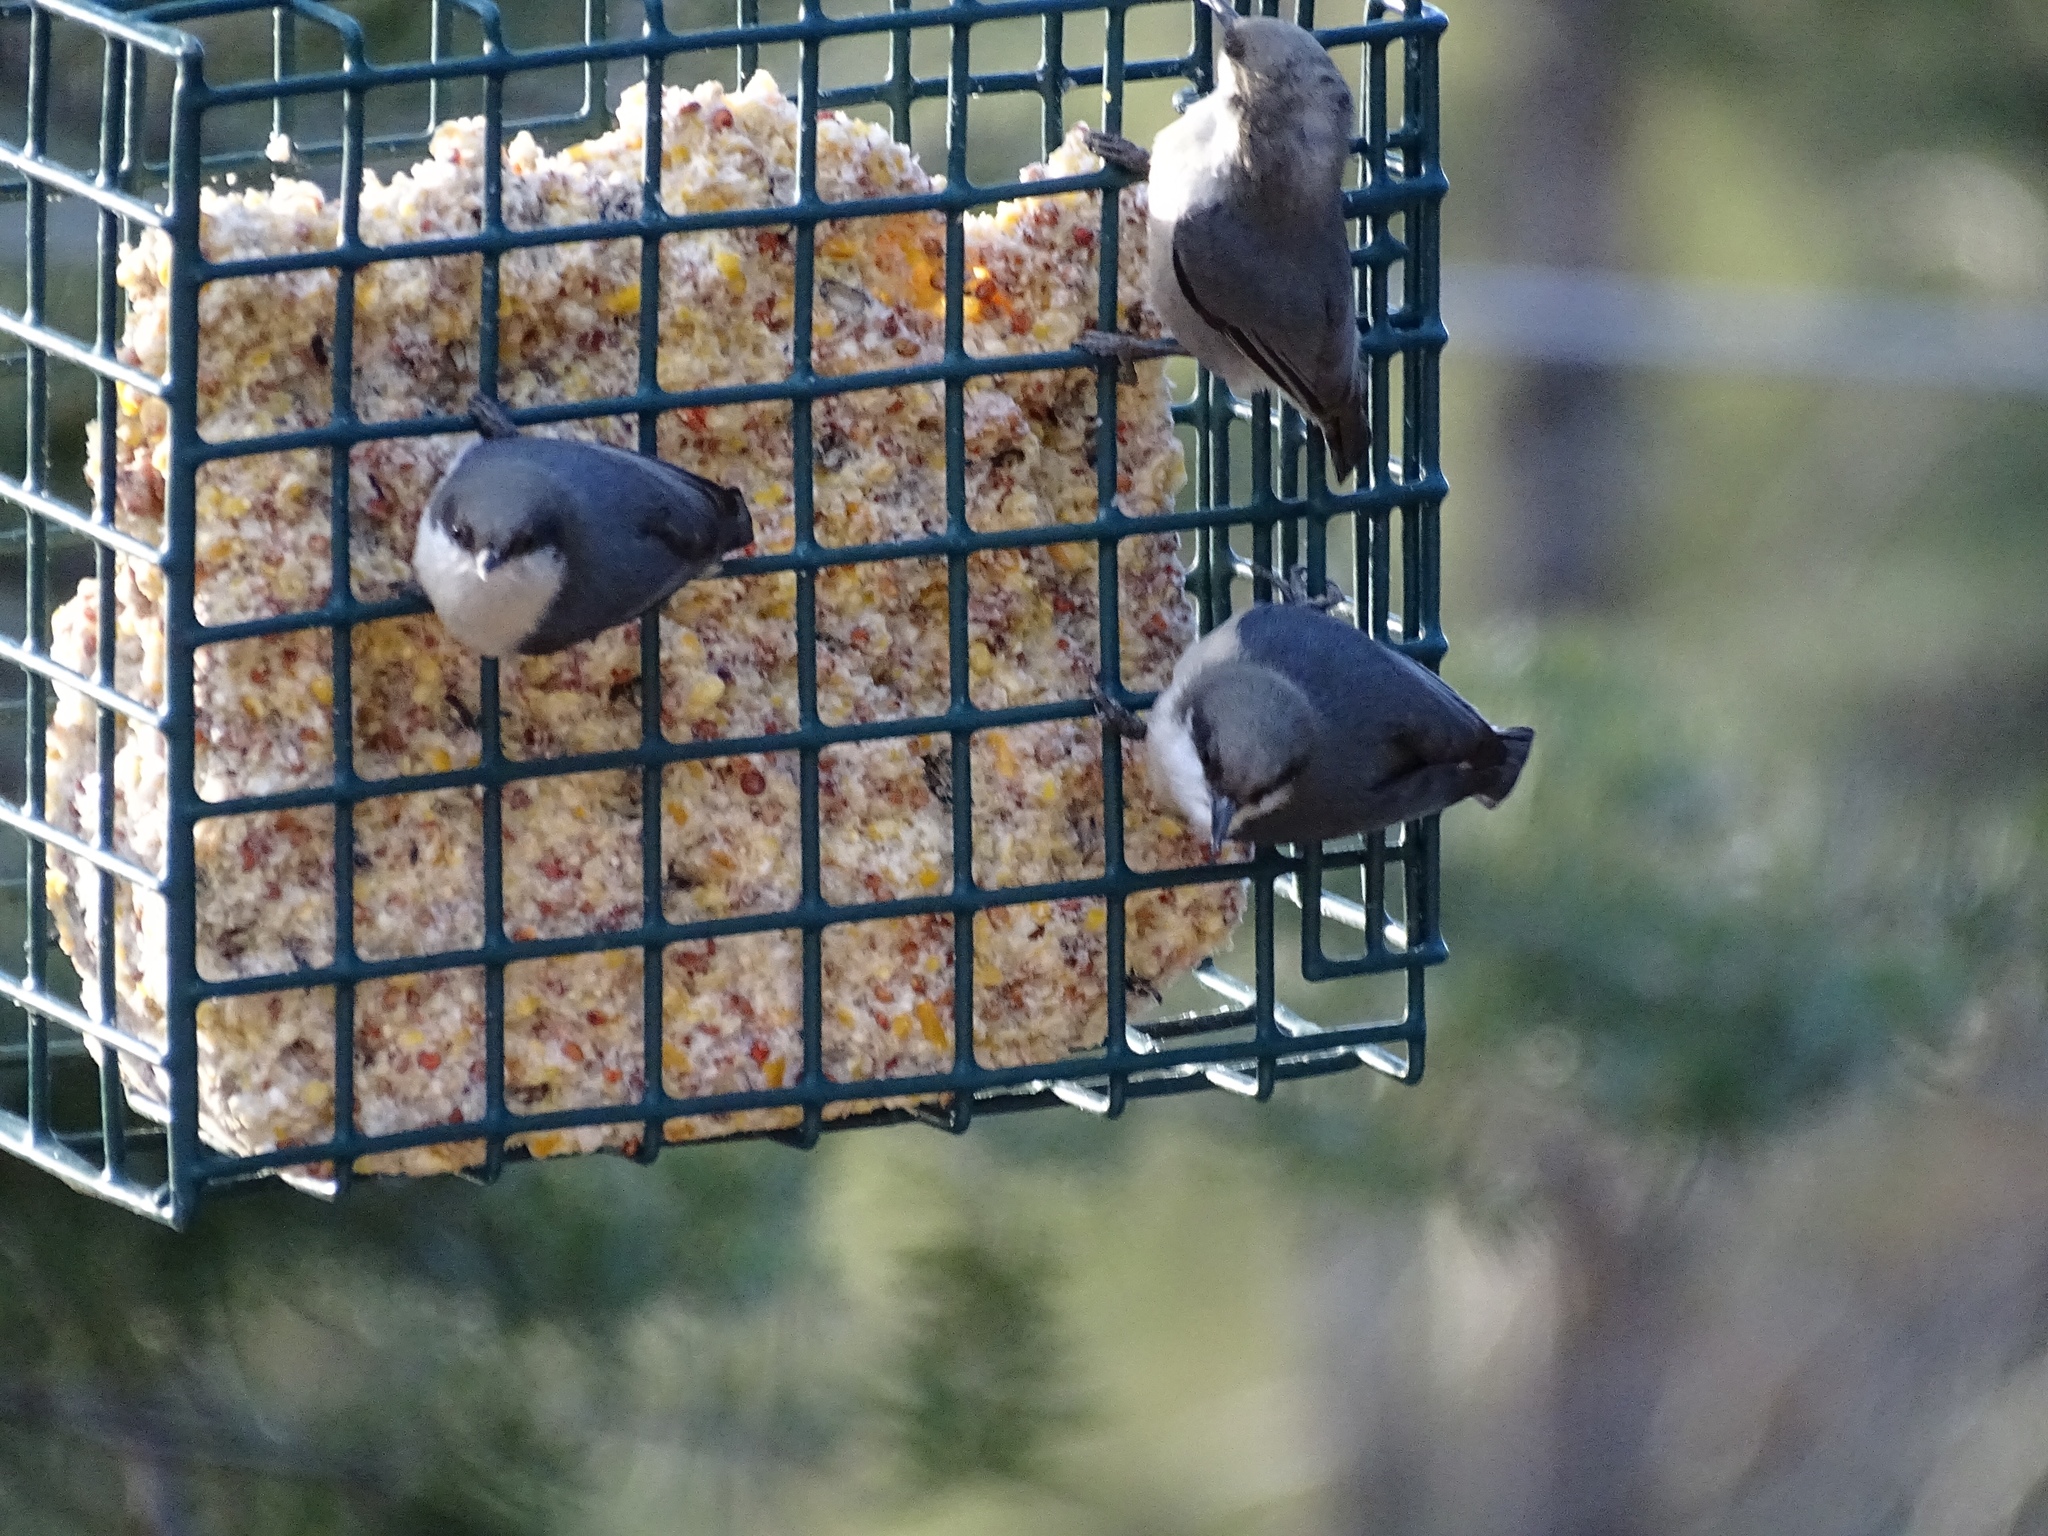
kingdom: Animalia
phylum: Chordata
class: Aves
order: Passeriformes
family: Sittidae
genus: Sitta
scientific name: Sitta pygmaea
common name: Pygmy nuthatch
